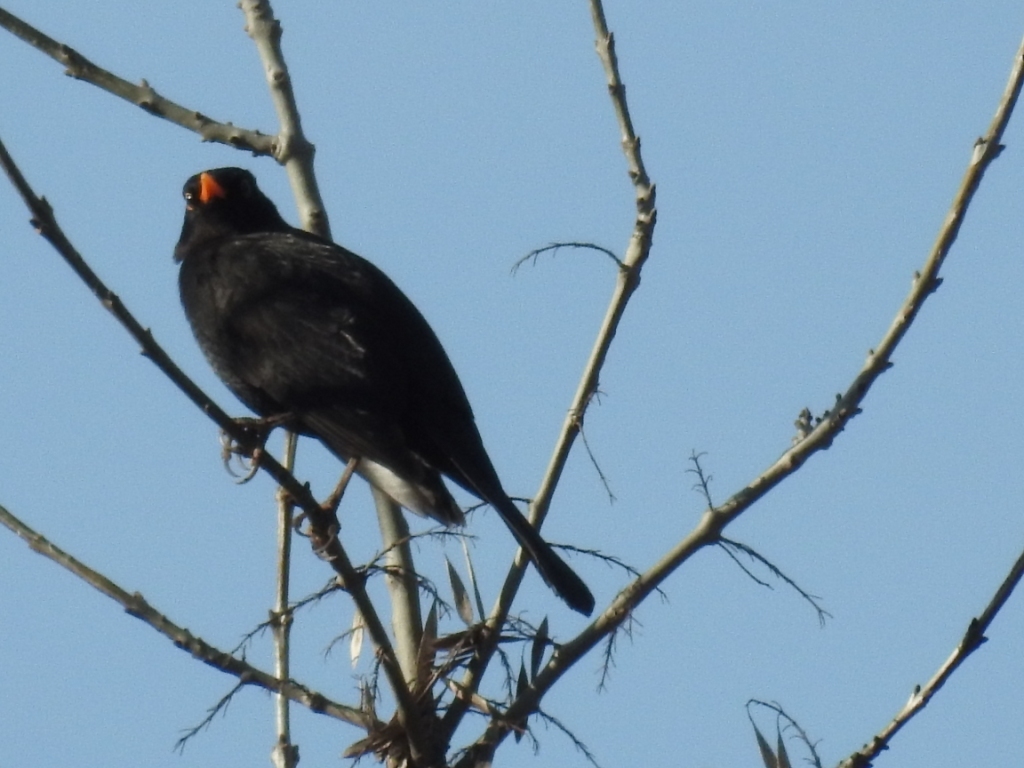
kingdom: Animalia
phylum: Chordata
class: Aves
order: Passeriformes
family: Turdidae
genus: Turdus
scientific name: Turdus merula
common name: Common blackbird
